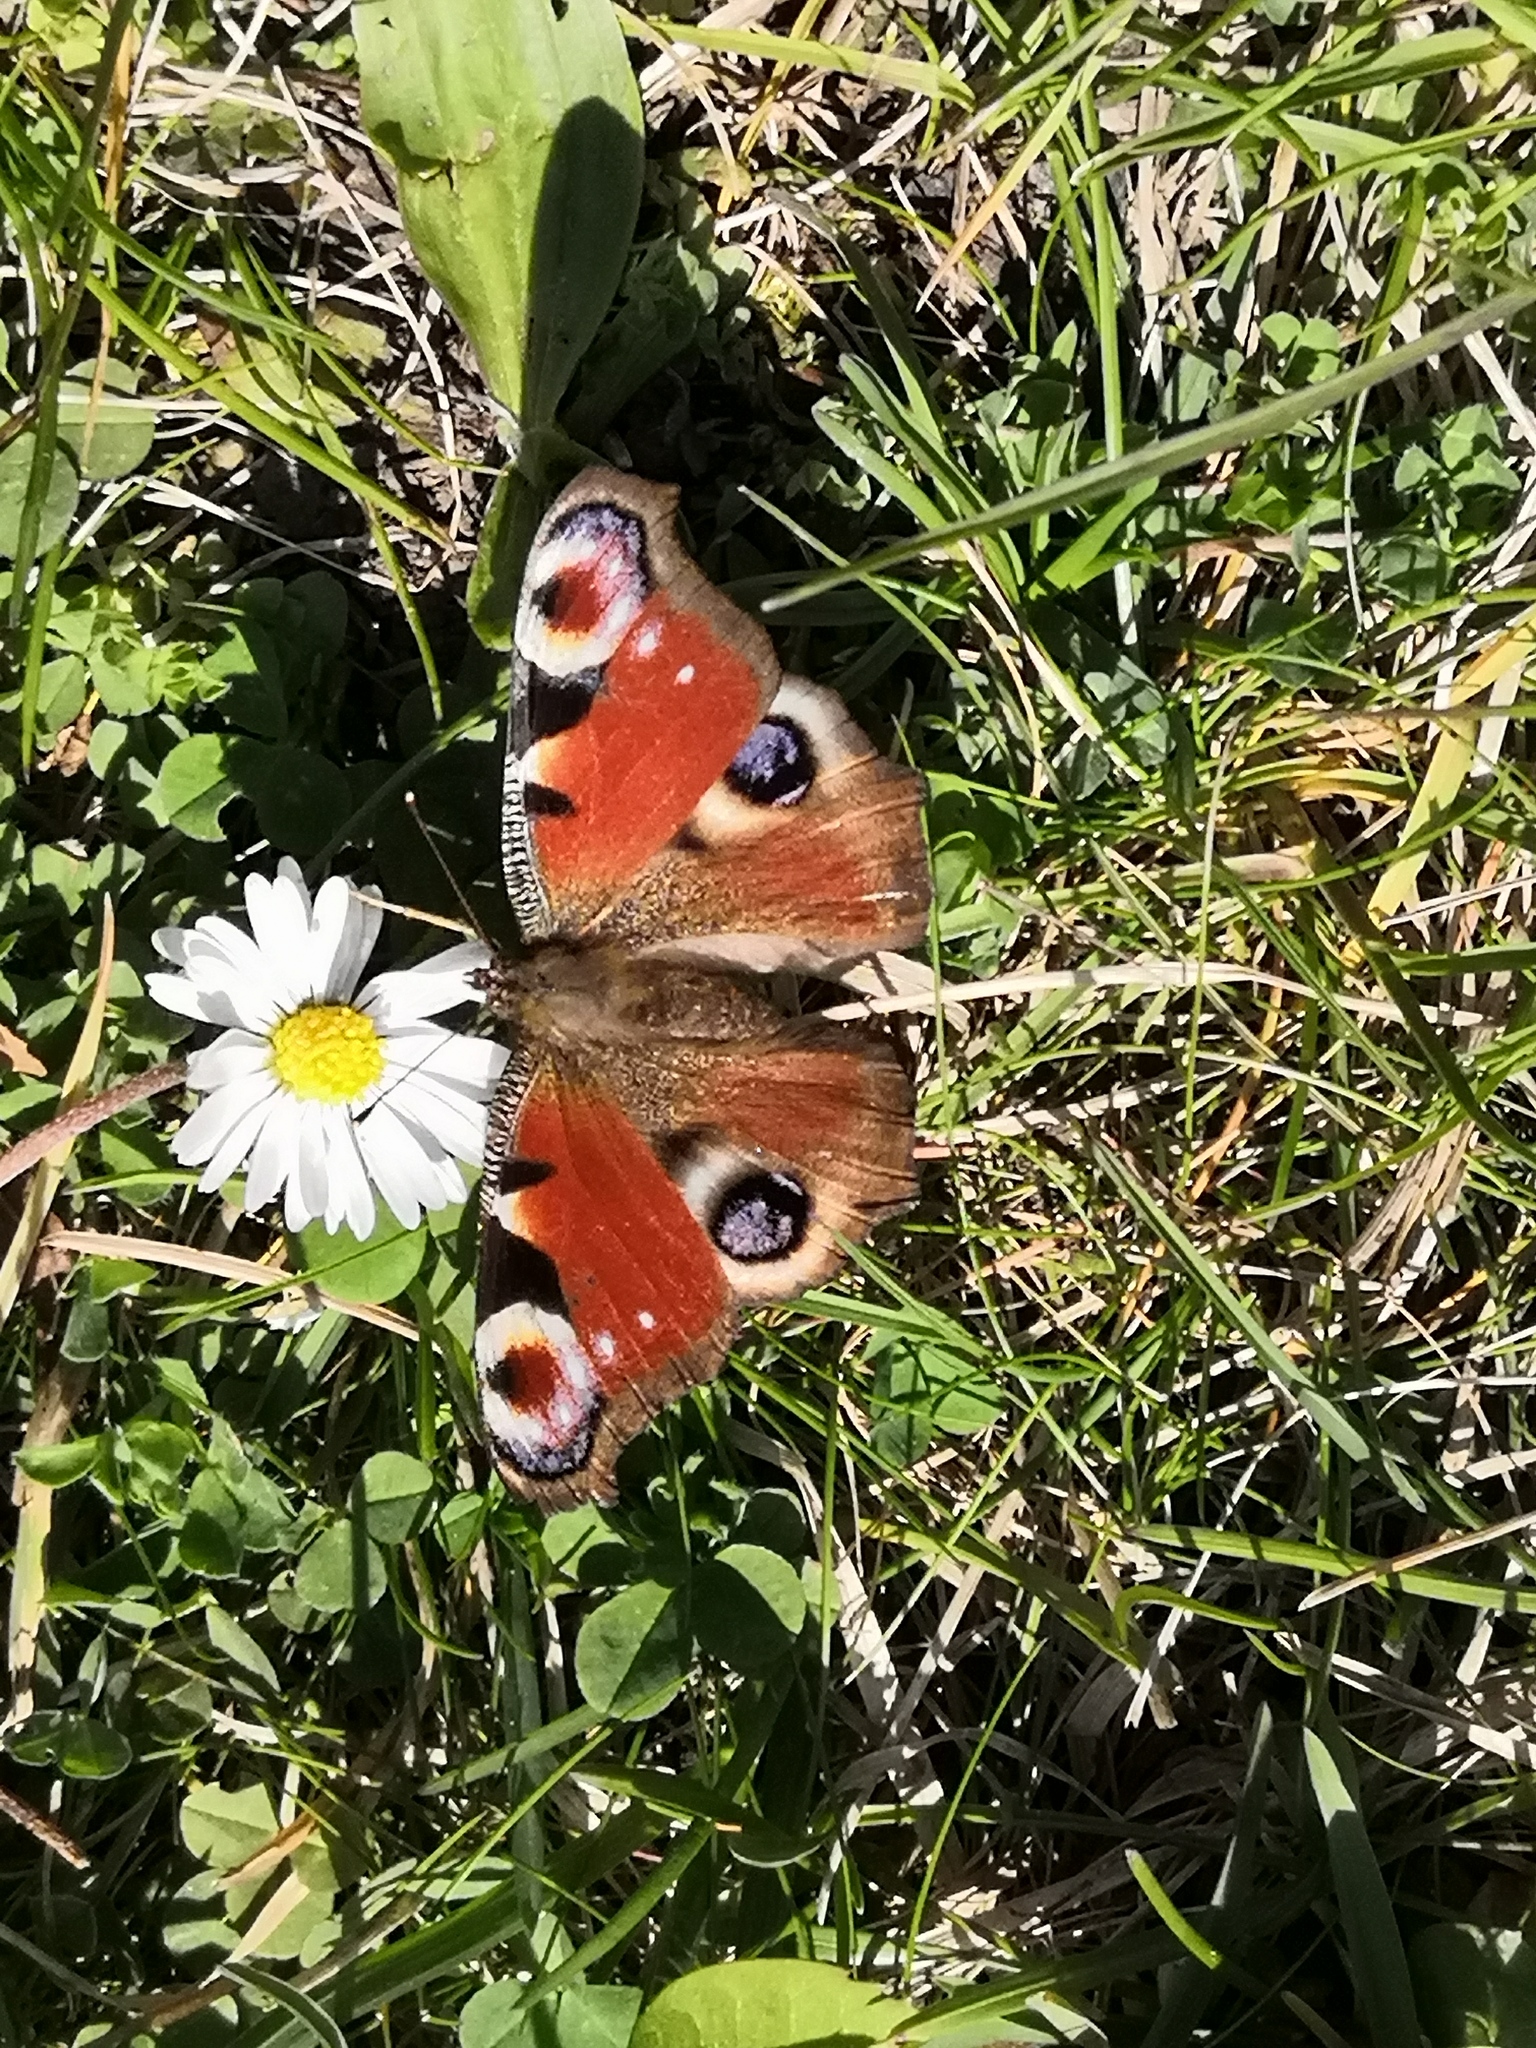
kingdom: Animalia
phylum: Arthropoda
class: Insecta
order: Lepidoptera
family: Nymphalidae
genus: Aglais
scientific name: Aglais io
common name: Peacock
